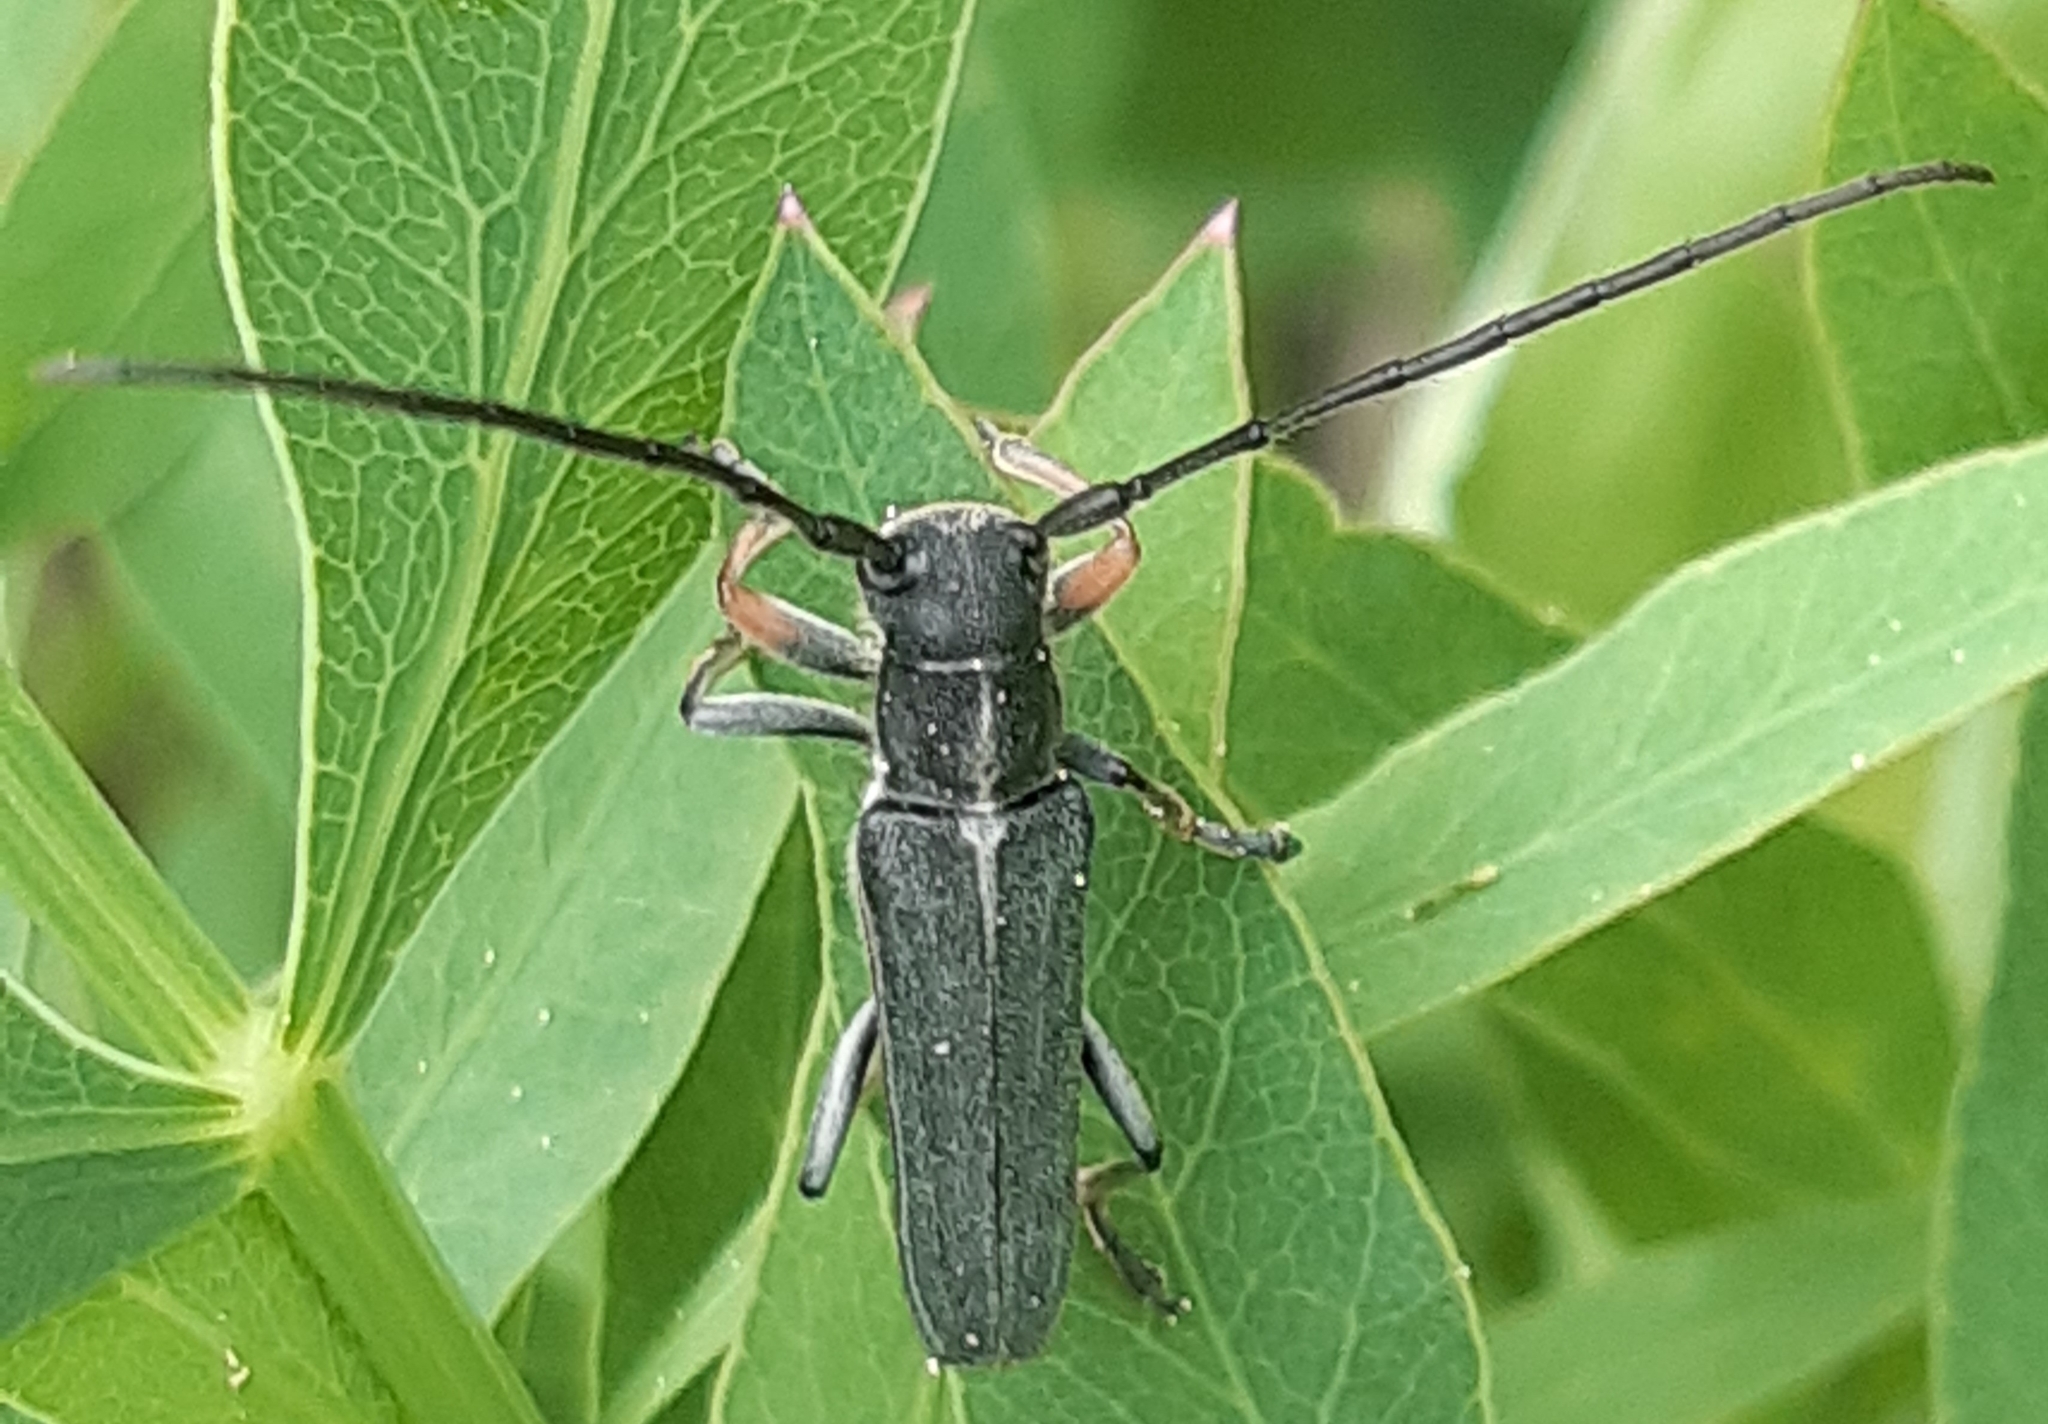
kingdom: Animalia
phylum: Arthropoda
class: Insecta
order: Coleoptera
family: Cerambycidae
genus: Phytoecia
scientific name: Phytoecia cylindrica
